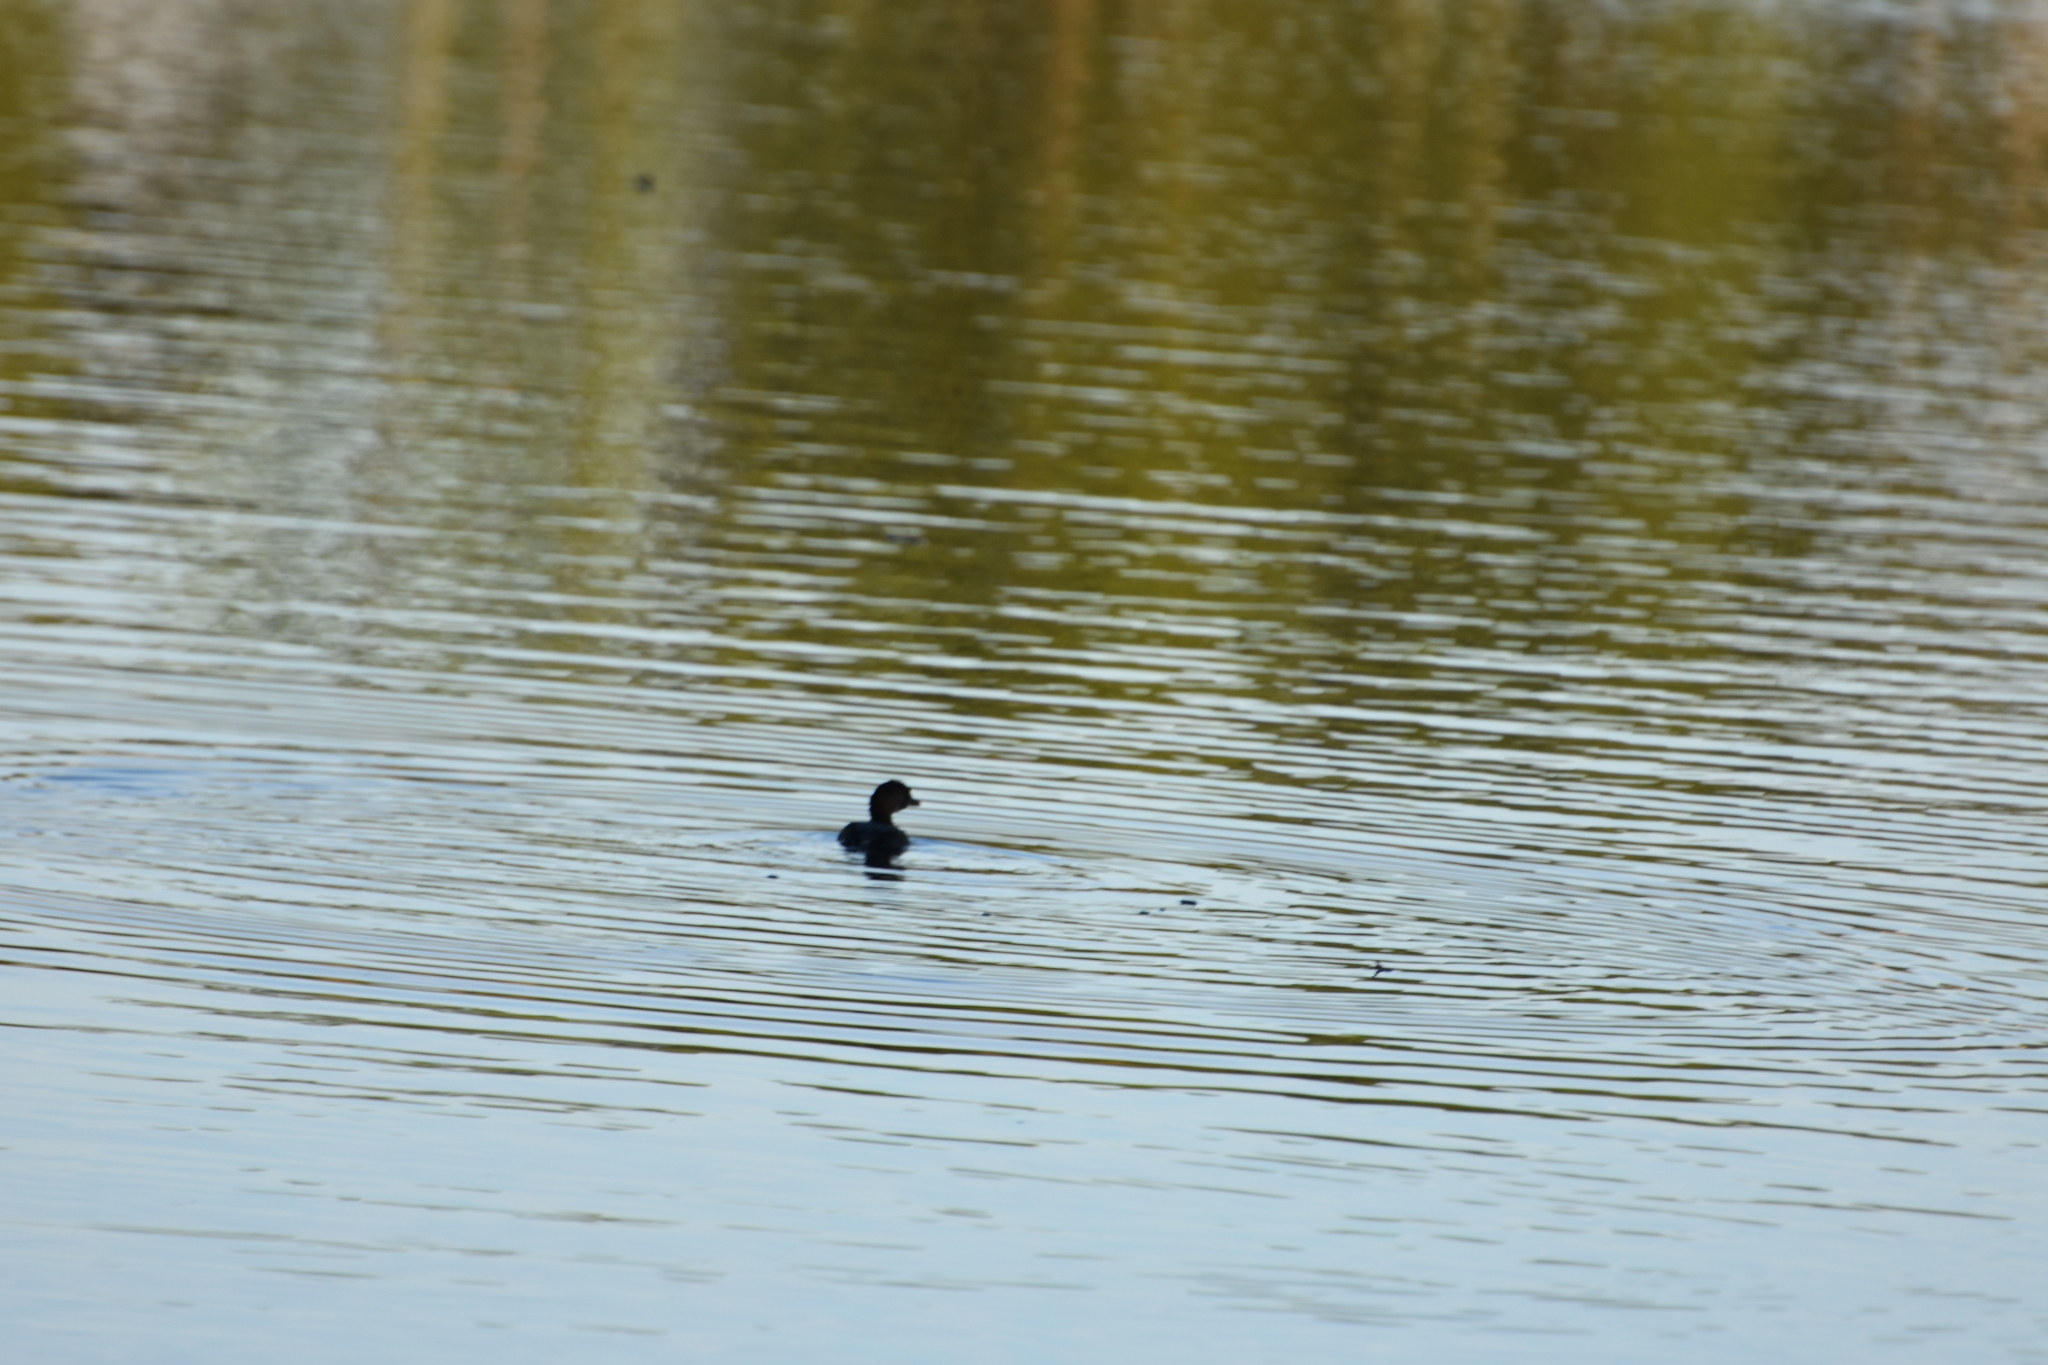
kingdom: Animalia
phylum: Chordata
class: Aves
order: Podicipediformes
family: Podicipedidae
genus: Podilymbus
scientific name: Podilymbus podiceps
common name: Pied-billed grebe
